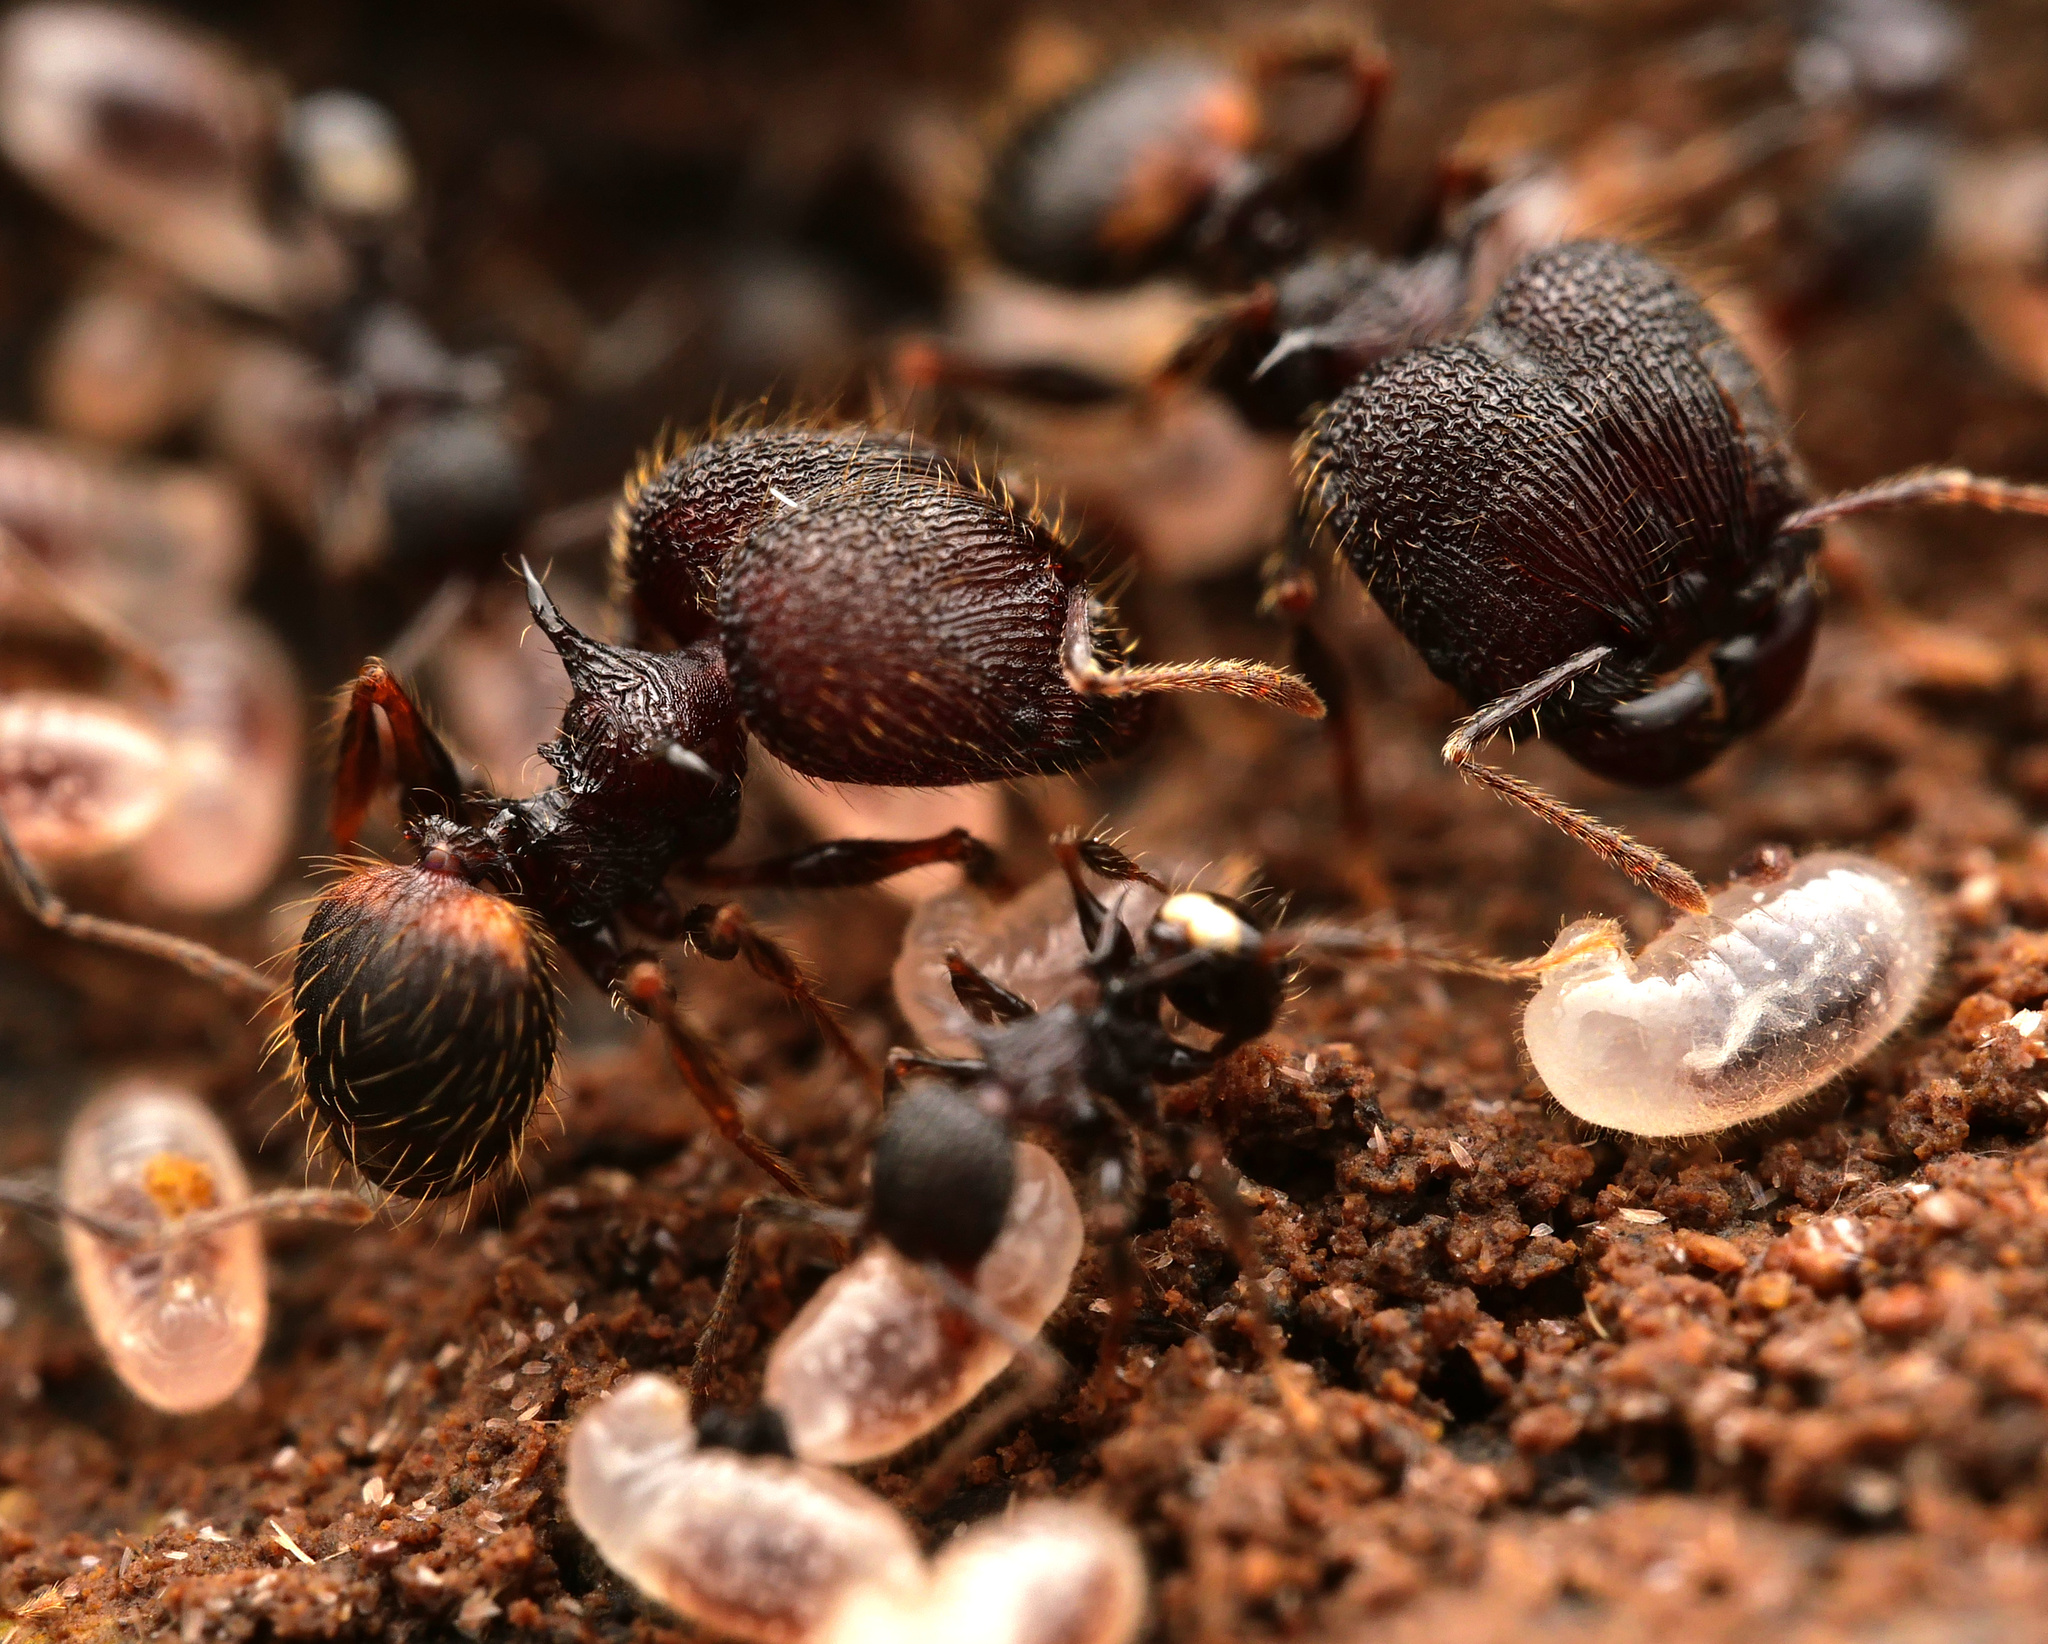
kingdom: Animalia
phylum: Arthropoda
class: Insecta
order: Hymenoptera
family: Formicidae
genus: Pheidole
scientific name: Pheidole cervicornis
